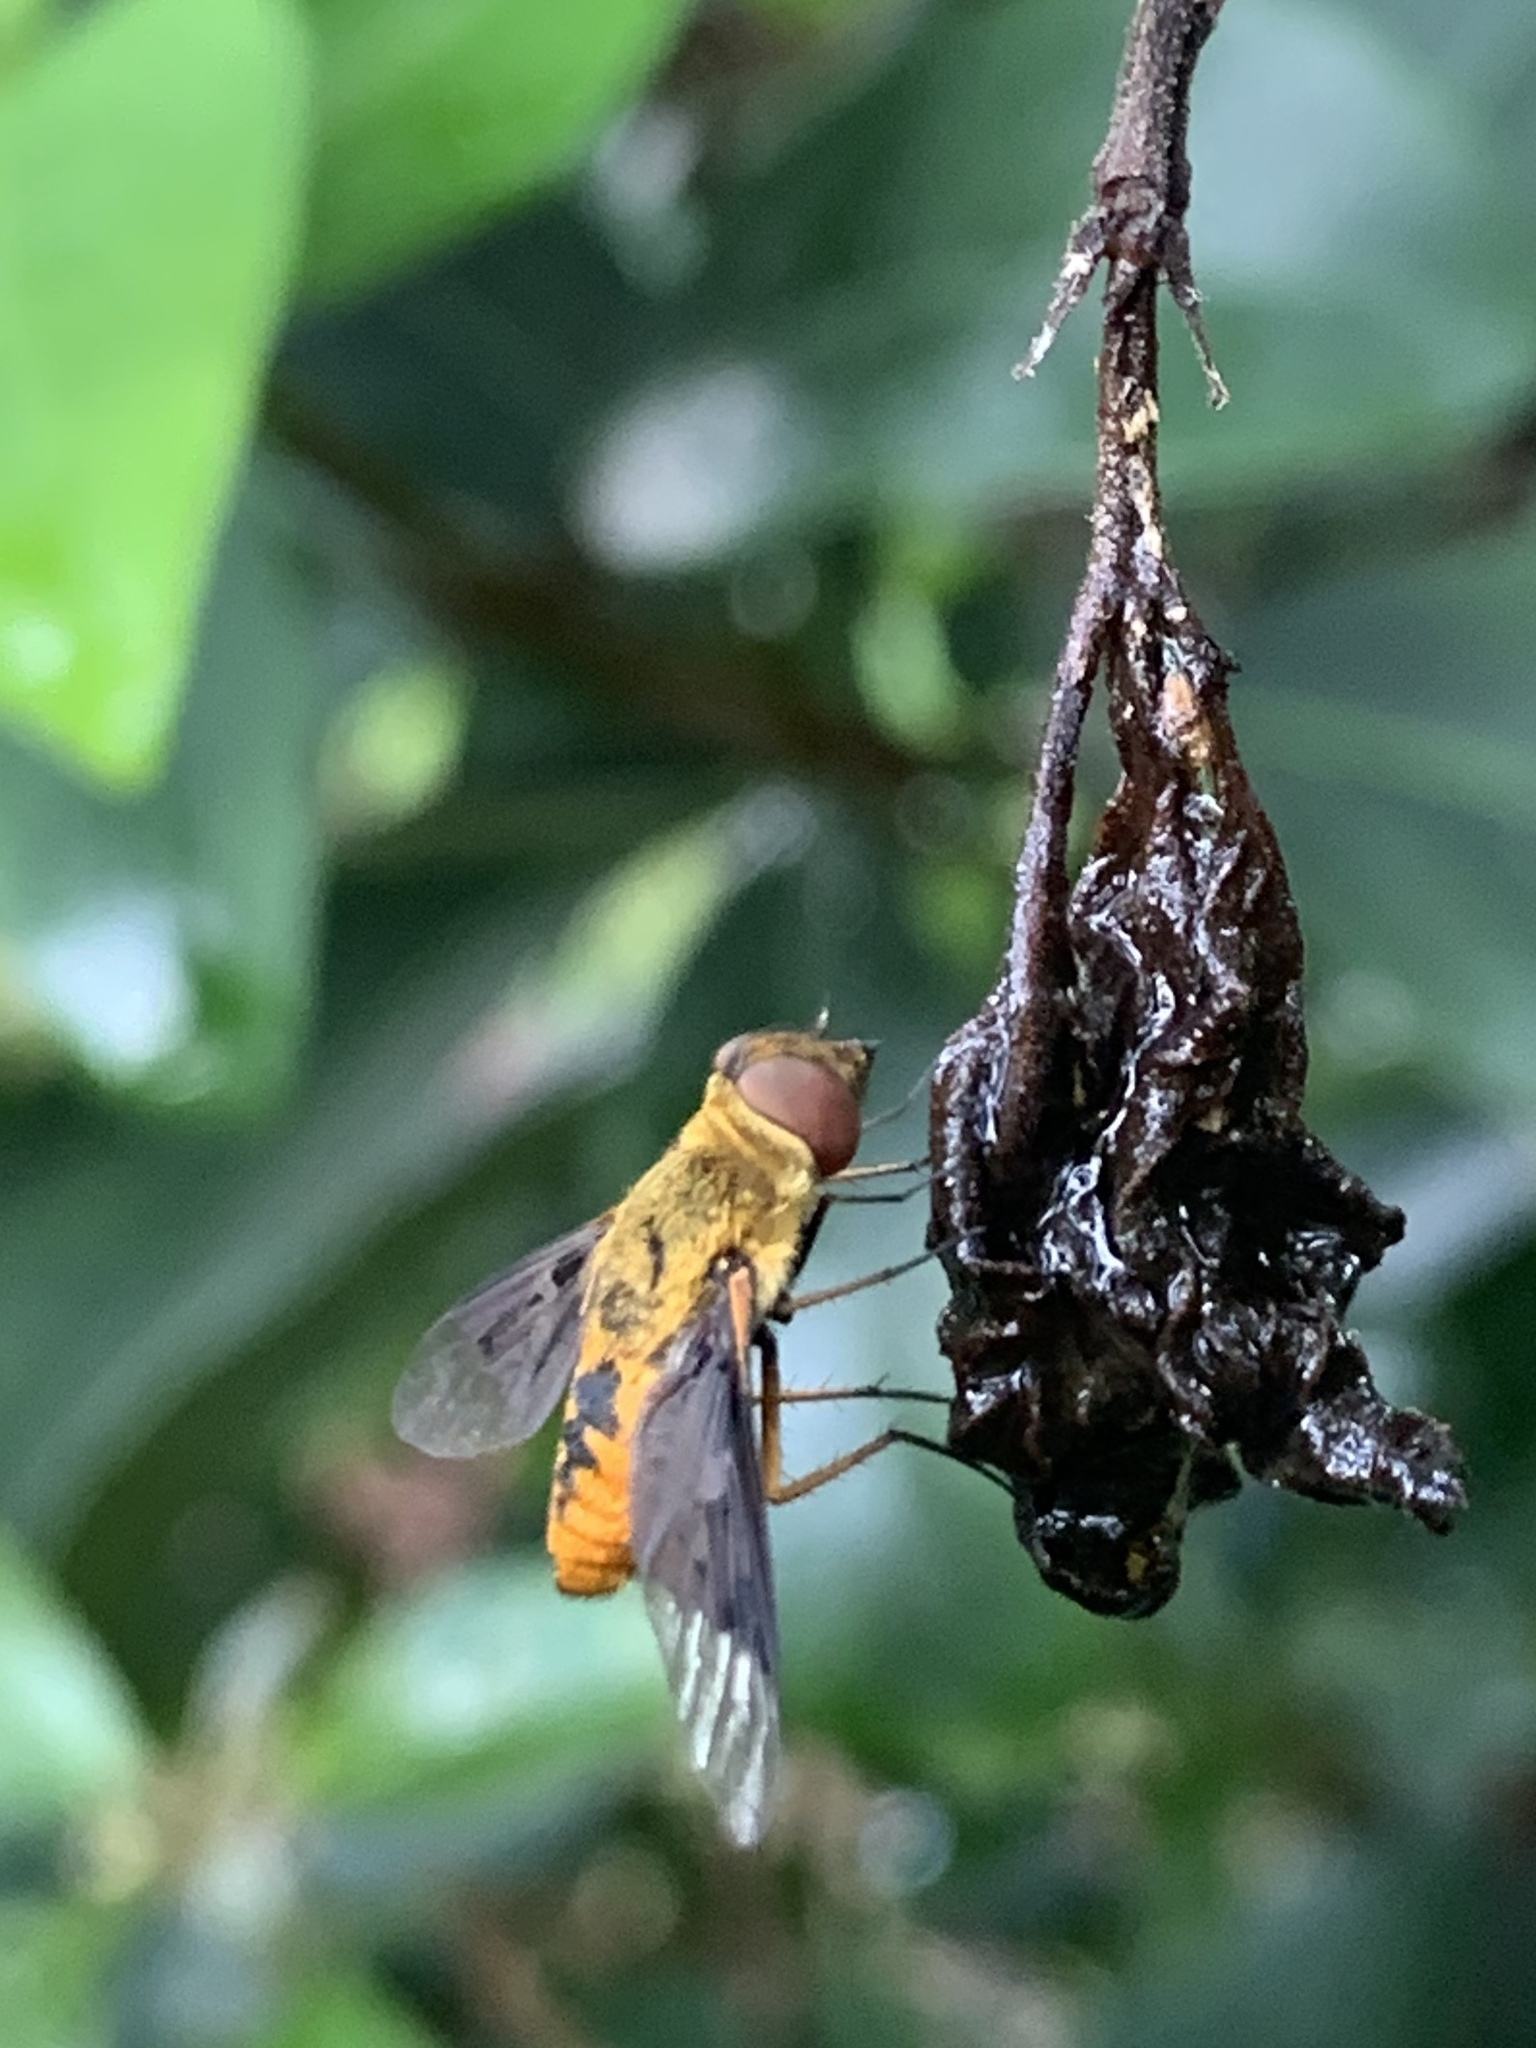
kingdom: Animalia
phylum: Arthropoda
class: Insecta
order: Diptera
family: Bombyliidae
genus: Chrysanthrax
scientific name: Chrysanthrax cypris
